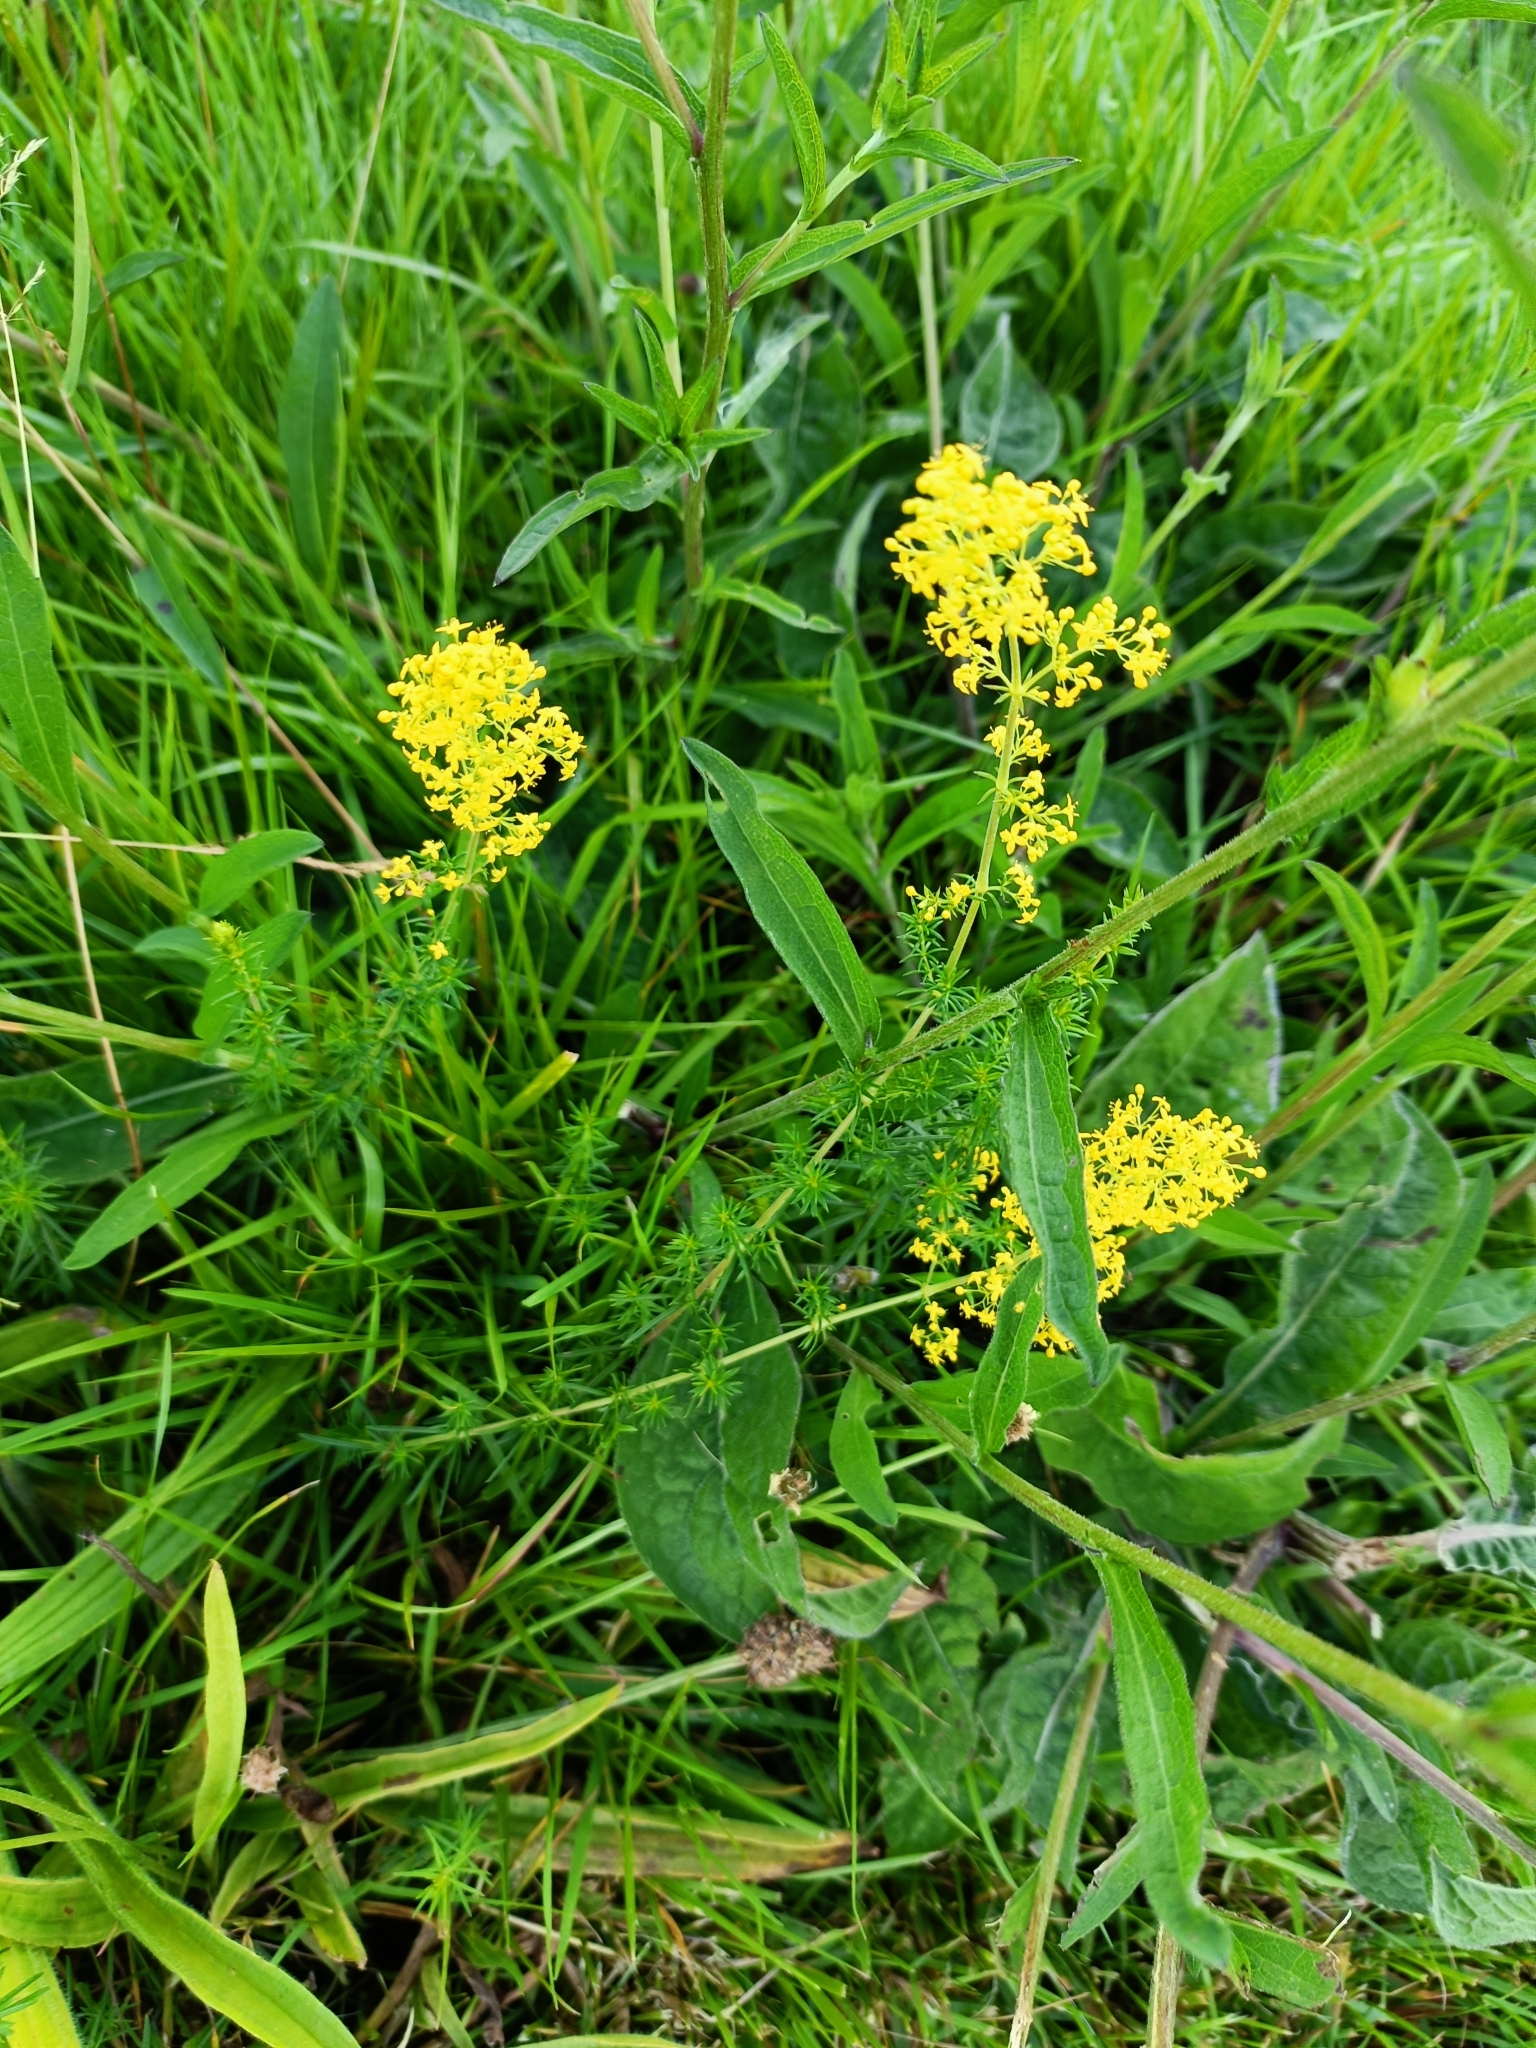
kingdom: Plantae
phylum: Tracheophyta
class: Magnoliopsida
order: Gentianales
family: Rubiaceae
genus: Galium
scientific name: Galium verum
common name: Lady's bedstraw
